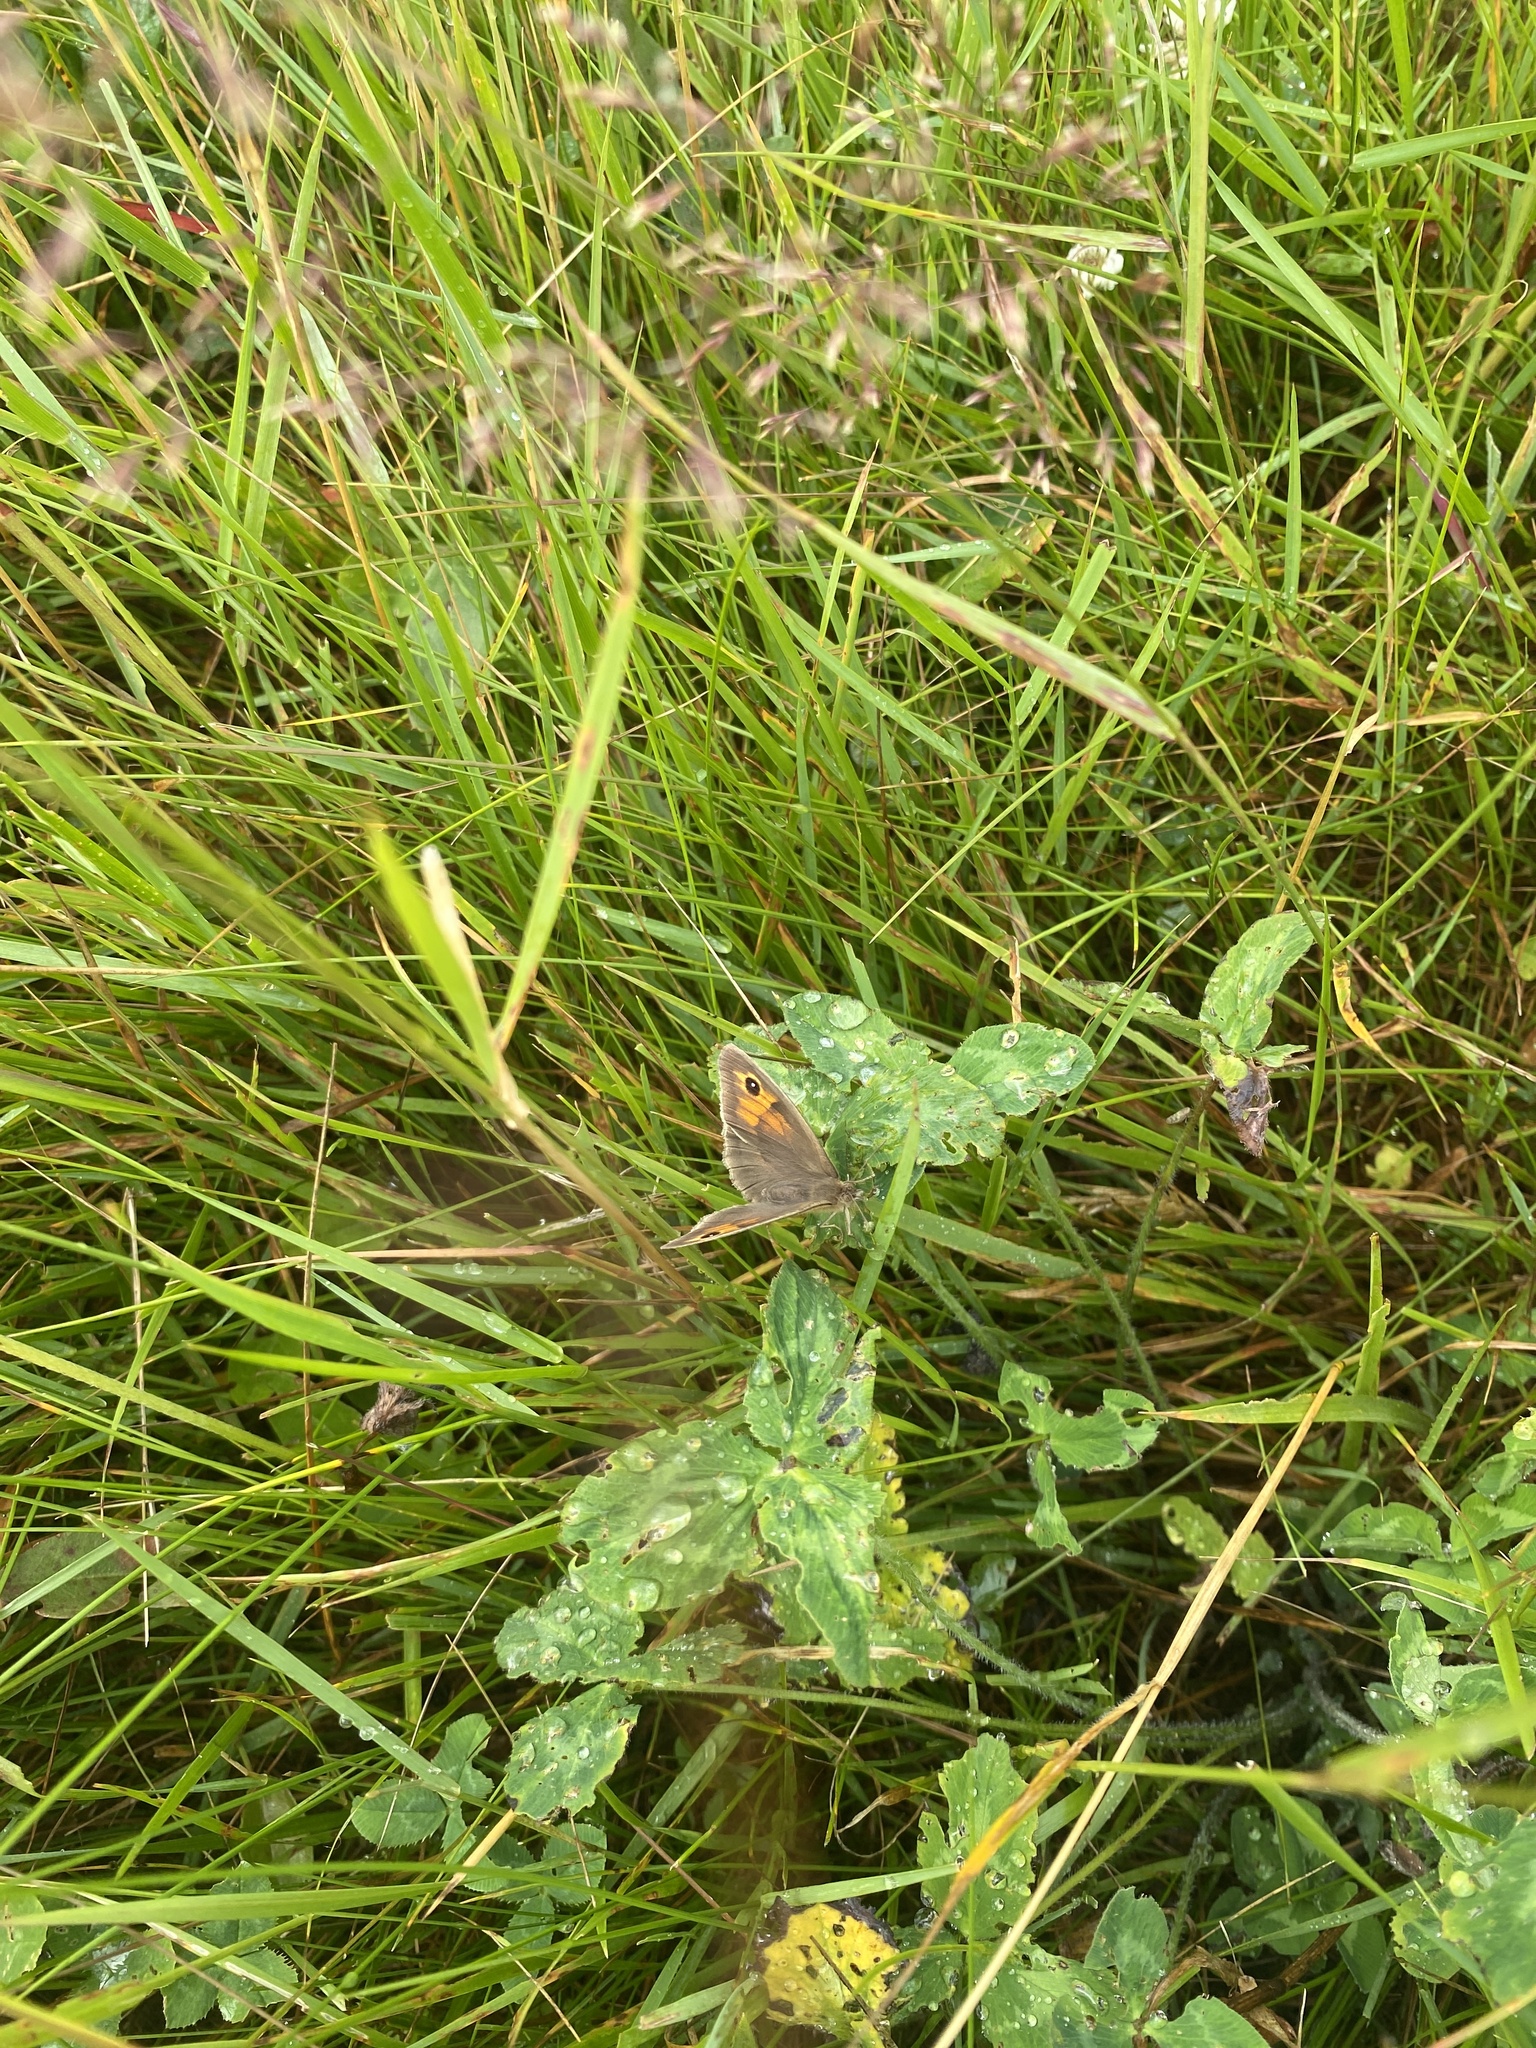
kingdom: Animalia
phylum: Arthropoda
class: Insecta
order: Lepidoptera
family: Nymphalidae
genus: Maniola
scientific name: Maniola jurtina
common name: Meadow brown
